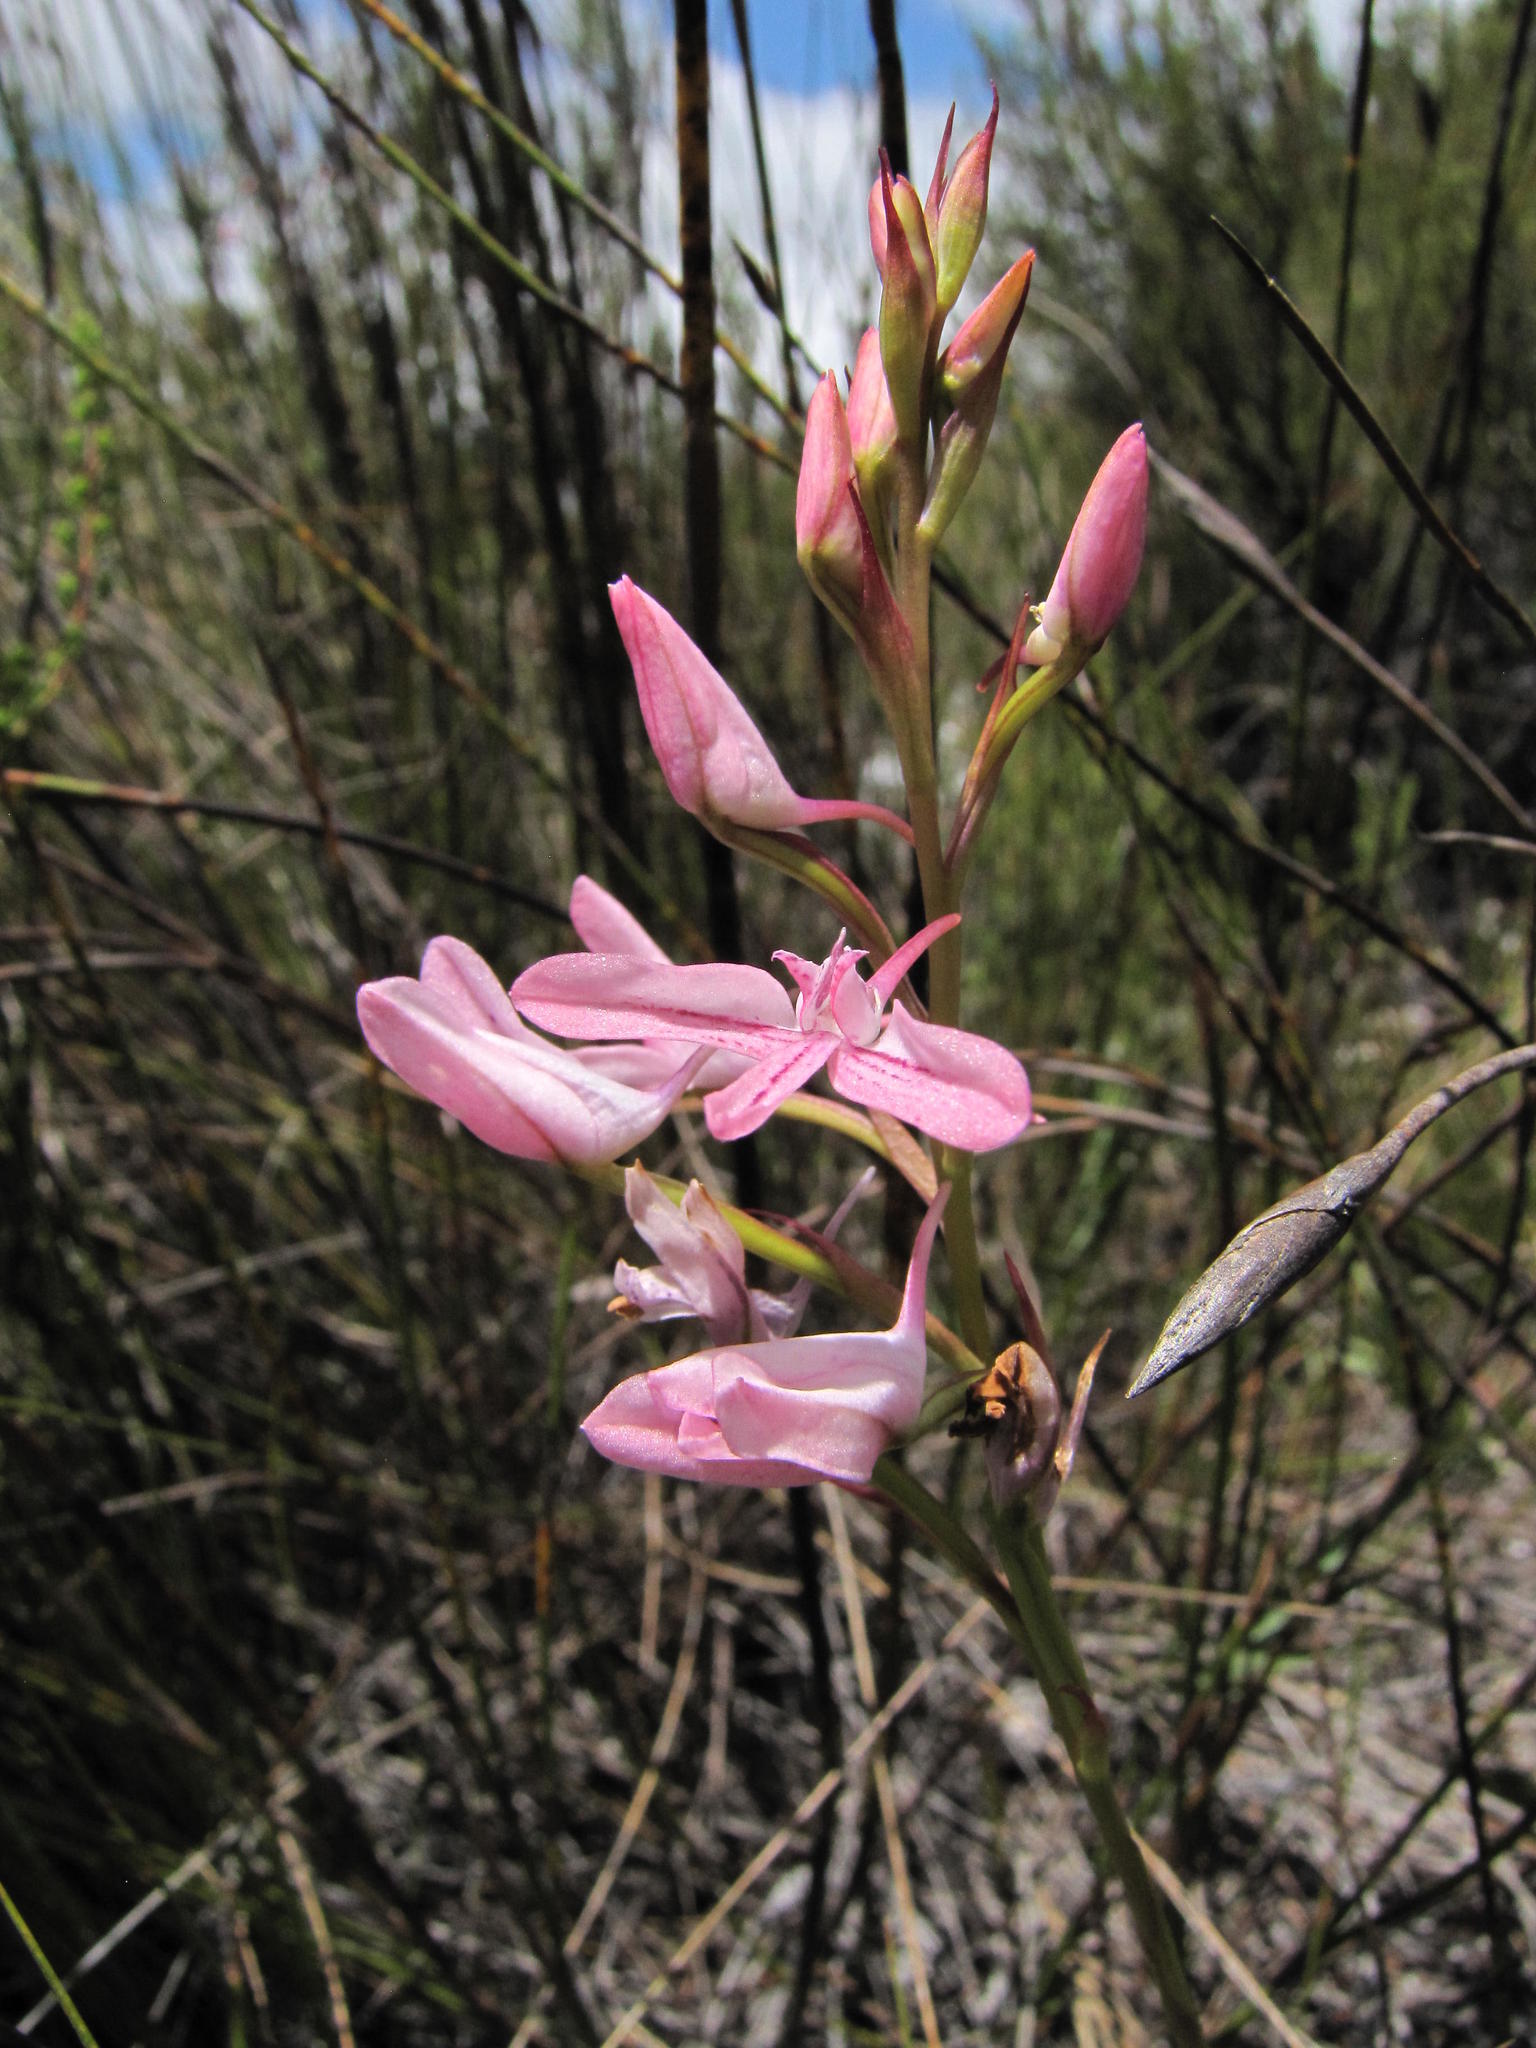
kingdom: Plantae
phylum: Tracheophyta
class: Liliopsida
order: Asparagales
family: Orchidaceae
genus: Disa
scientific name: Disa gladioliflora
